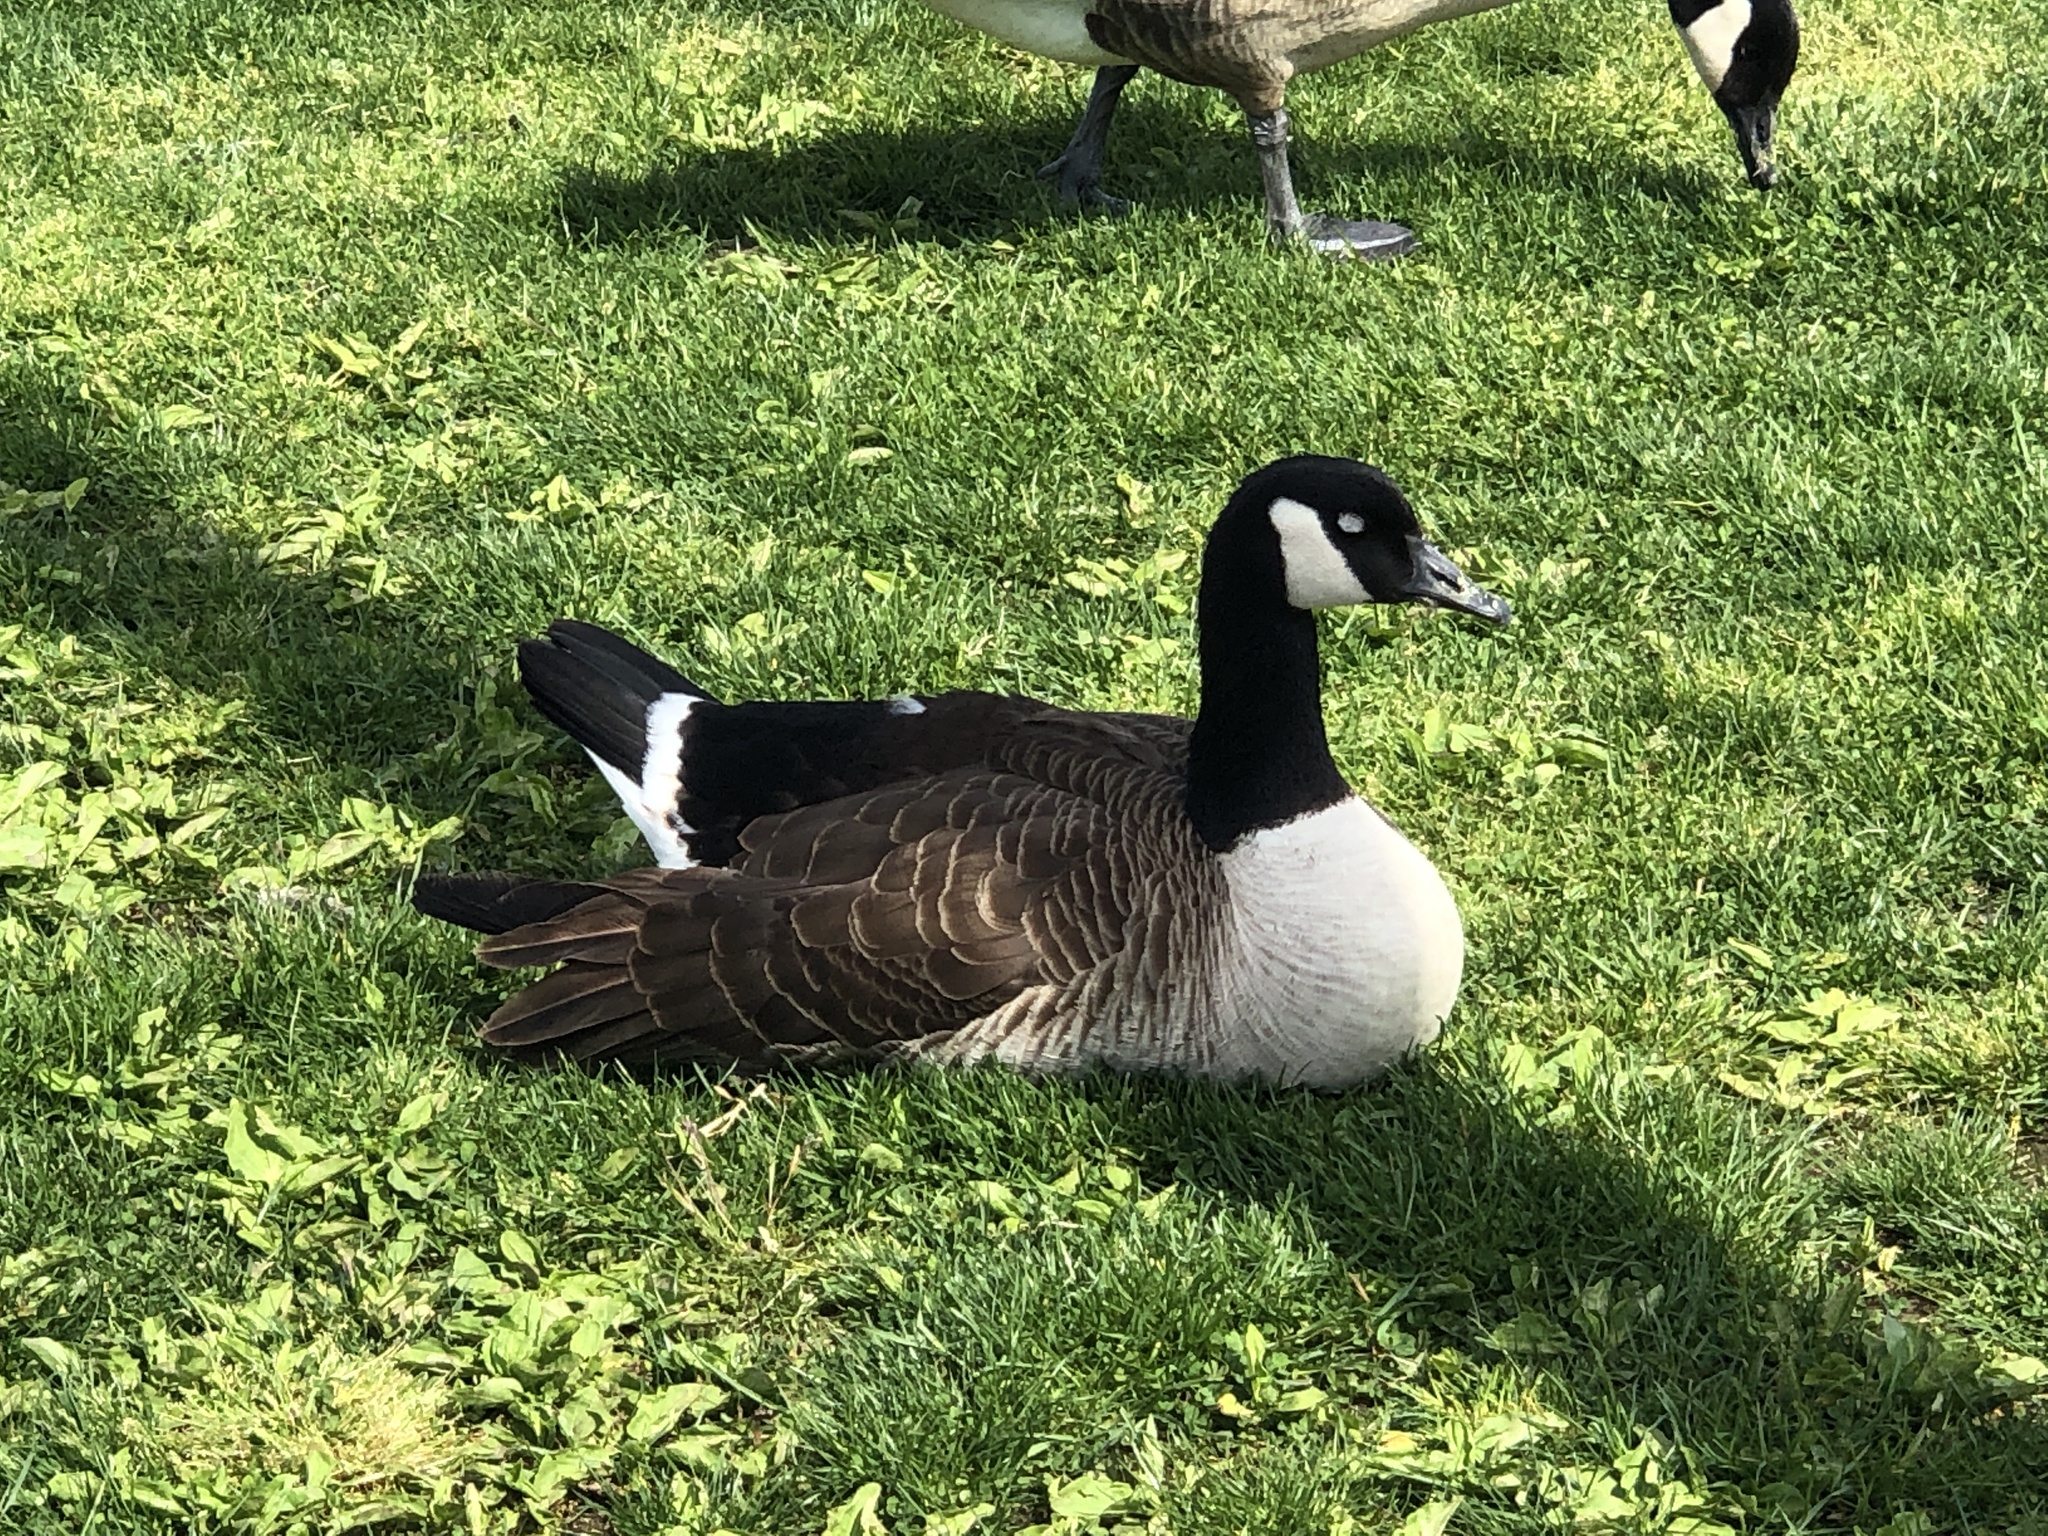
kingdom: Animalia
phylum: Chordata
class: Aves
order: Anseriformes
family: Anatidae
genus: Branta
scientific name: Branta canadensis
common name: Canada goose
